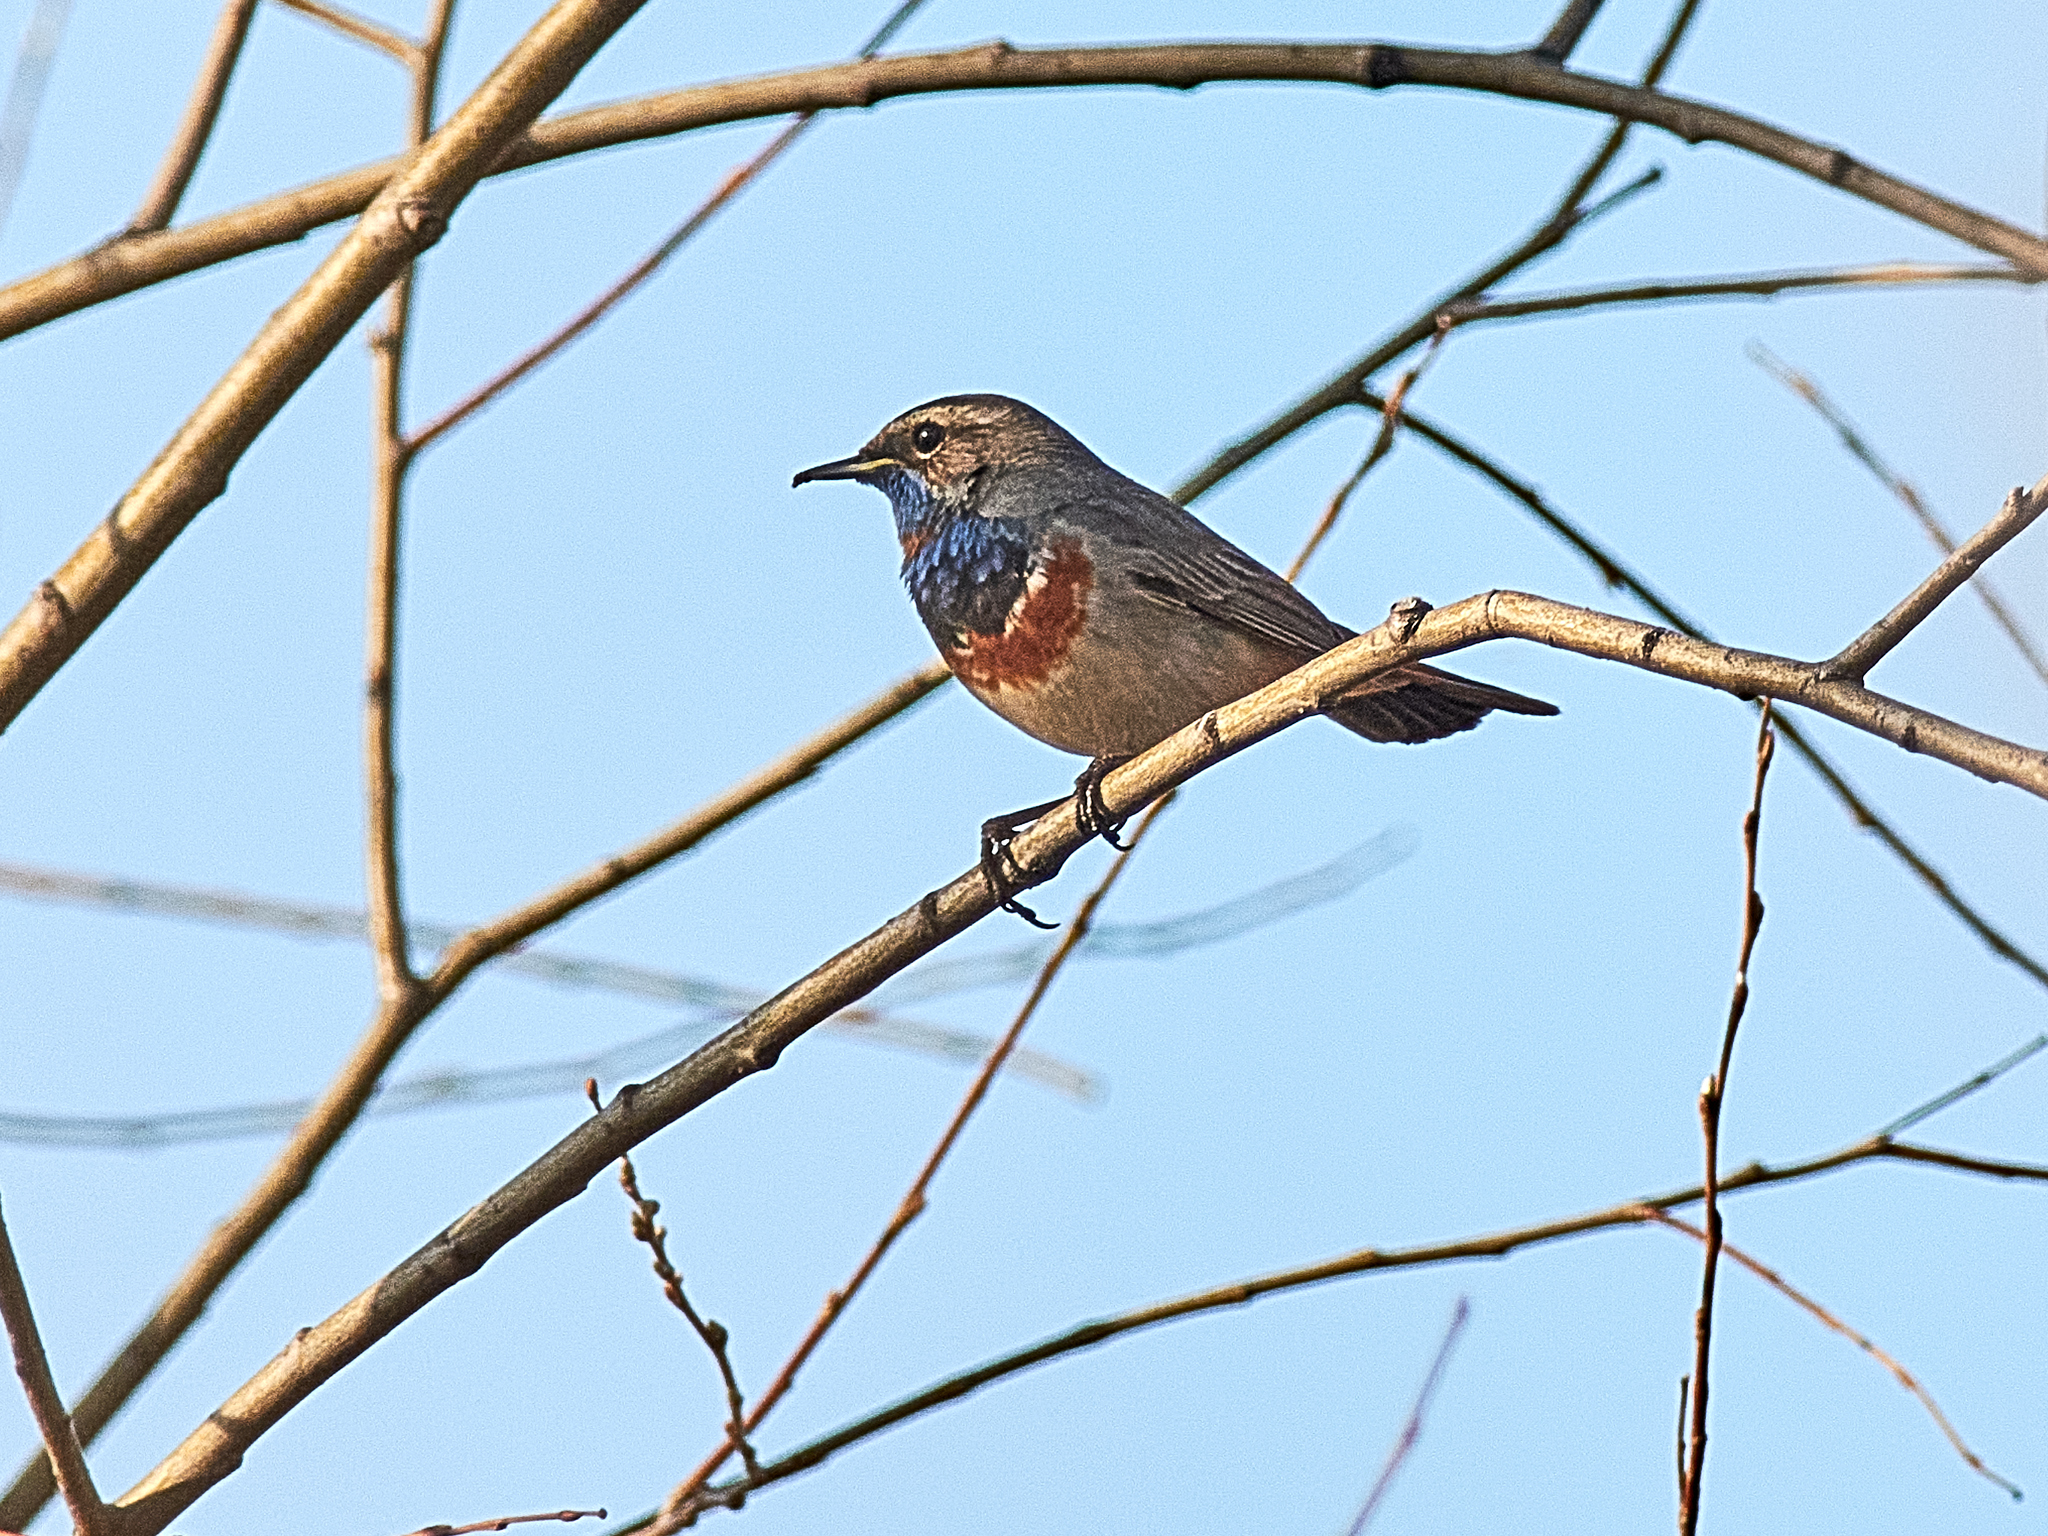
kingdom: Animalia
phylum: Chordata
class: Aves
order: Passeriformes
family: Muscicapidae
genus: Luscinia
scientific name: Luscinia svecica
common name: Bluethroat
